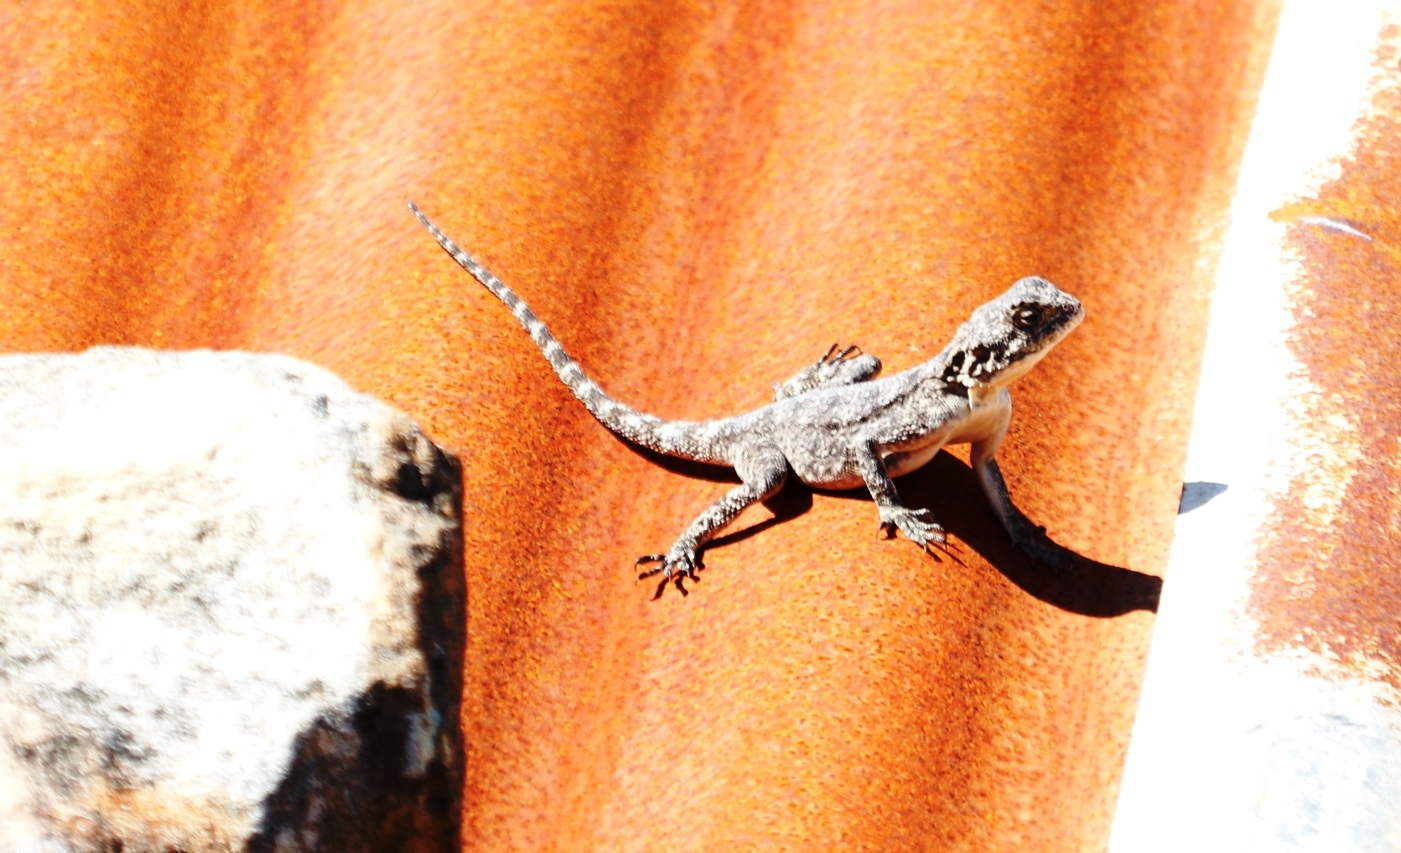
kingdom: Animalia
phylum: Chordata
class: Squamata
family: Agamidae
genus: Agama
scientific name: Agama atra
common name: Southern african rock agama
